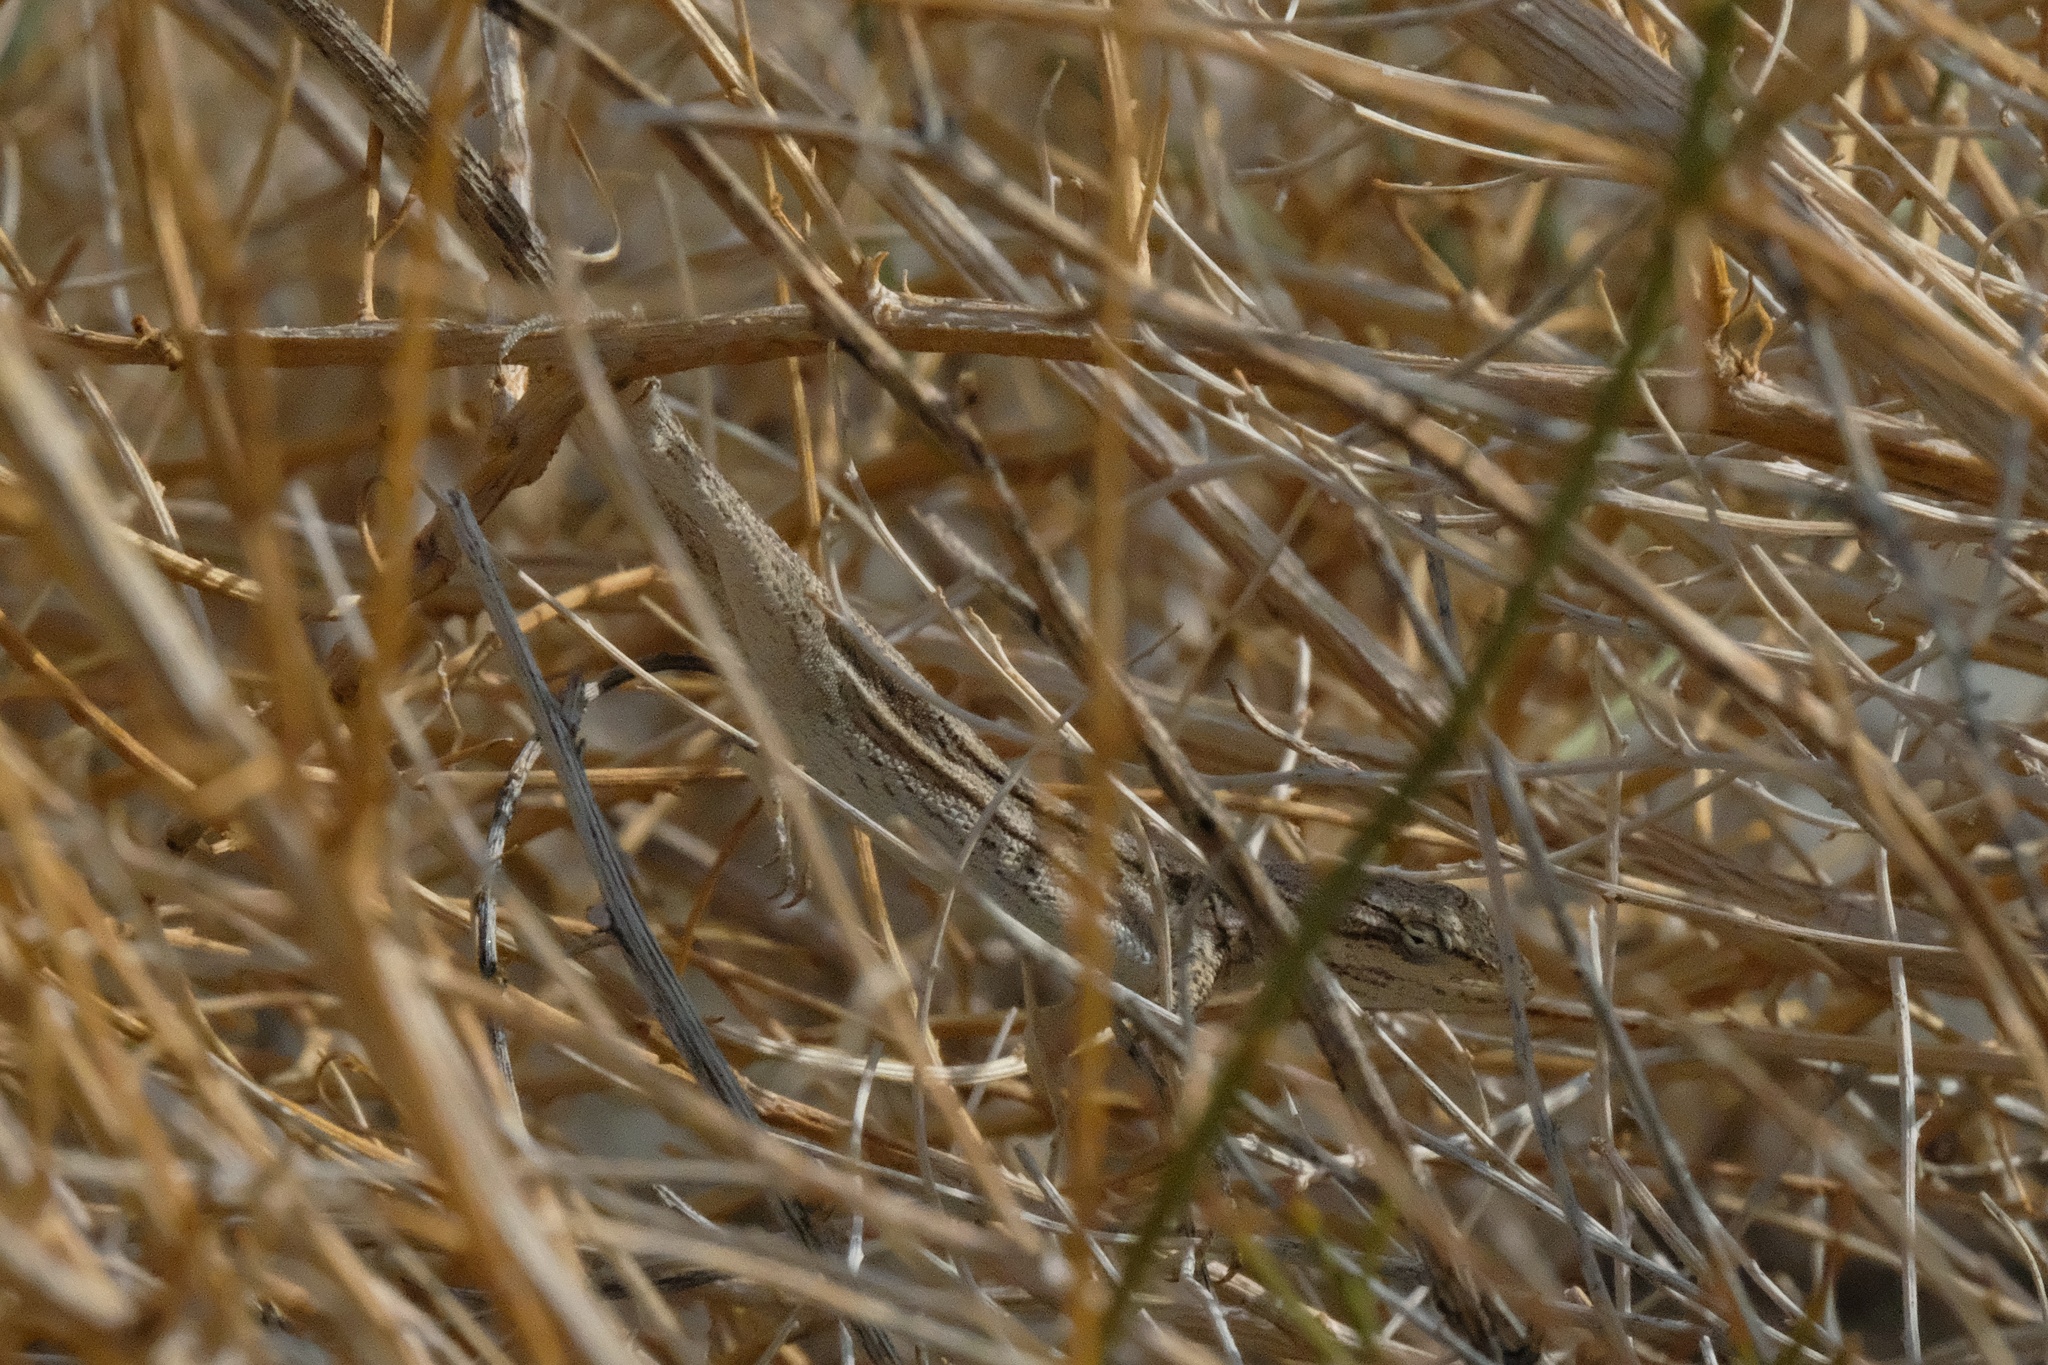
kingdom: Animalia
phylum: Chordata
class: Squamata
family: Phrynosomatidae
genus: Urosaurus
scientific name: Urosaurus graciosus
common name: Long-tailed brush lizard
